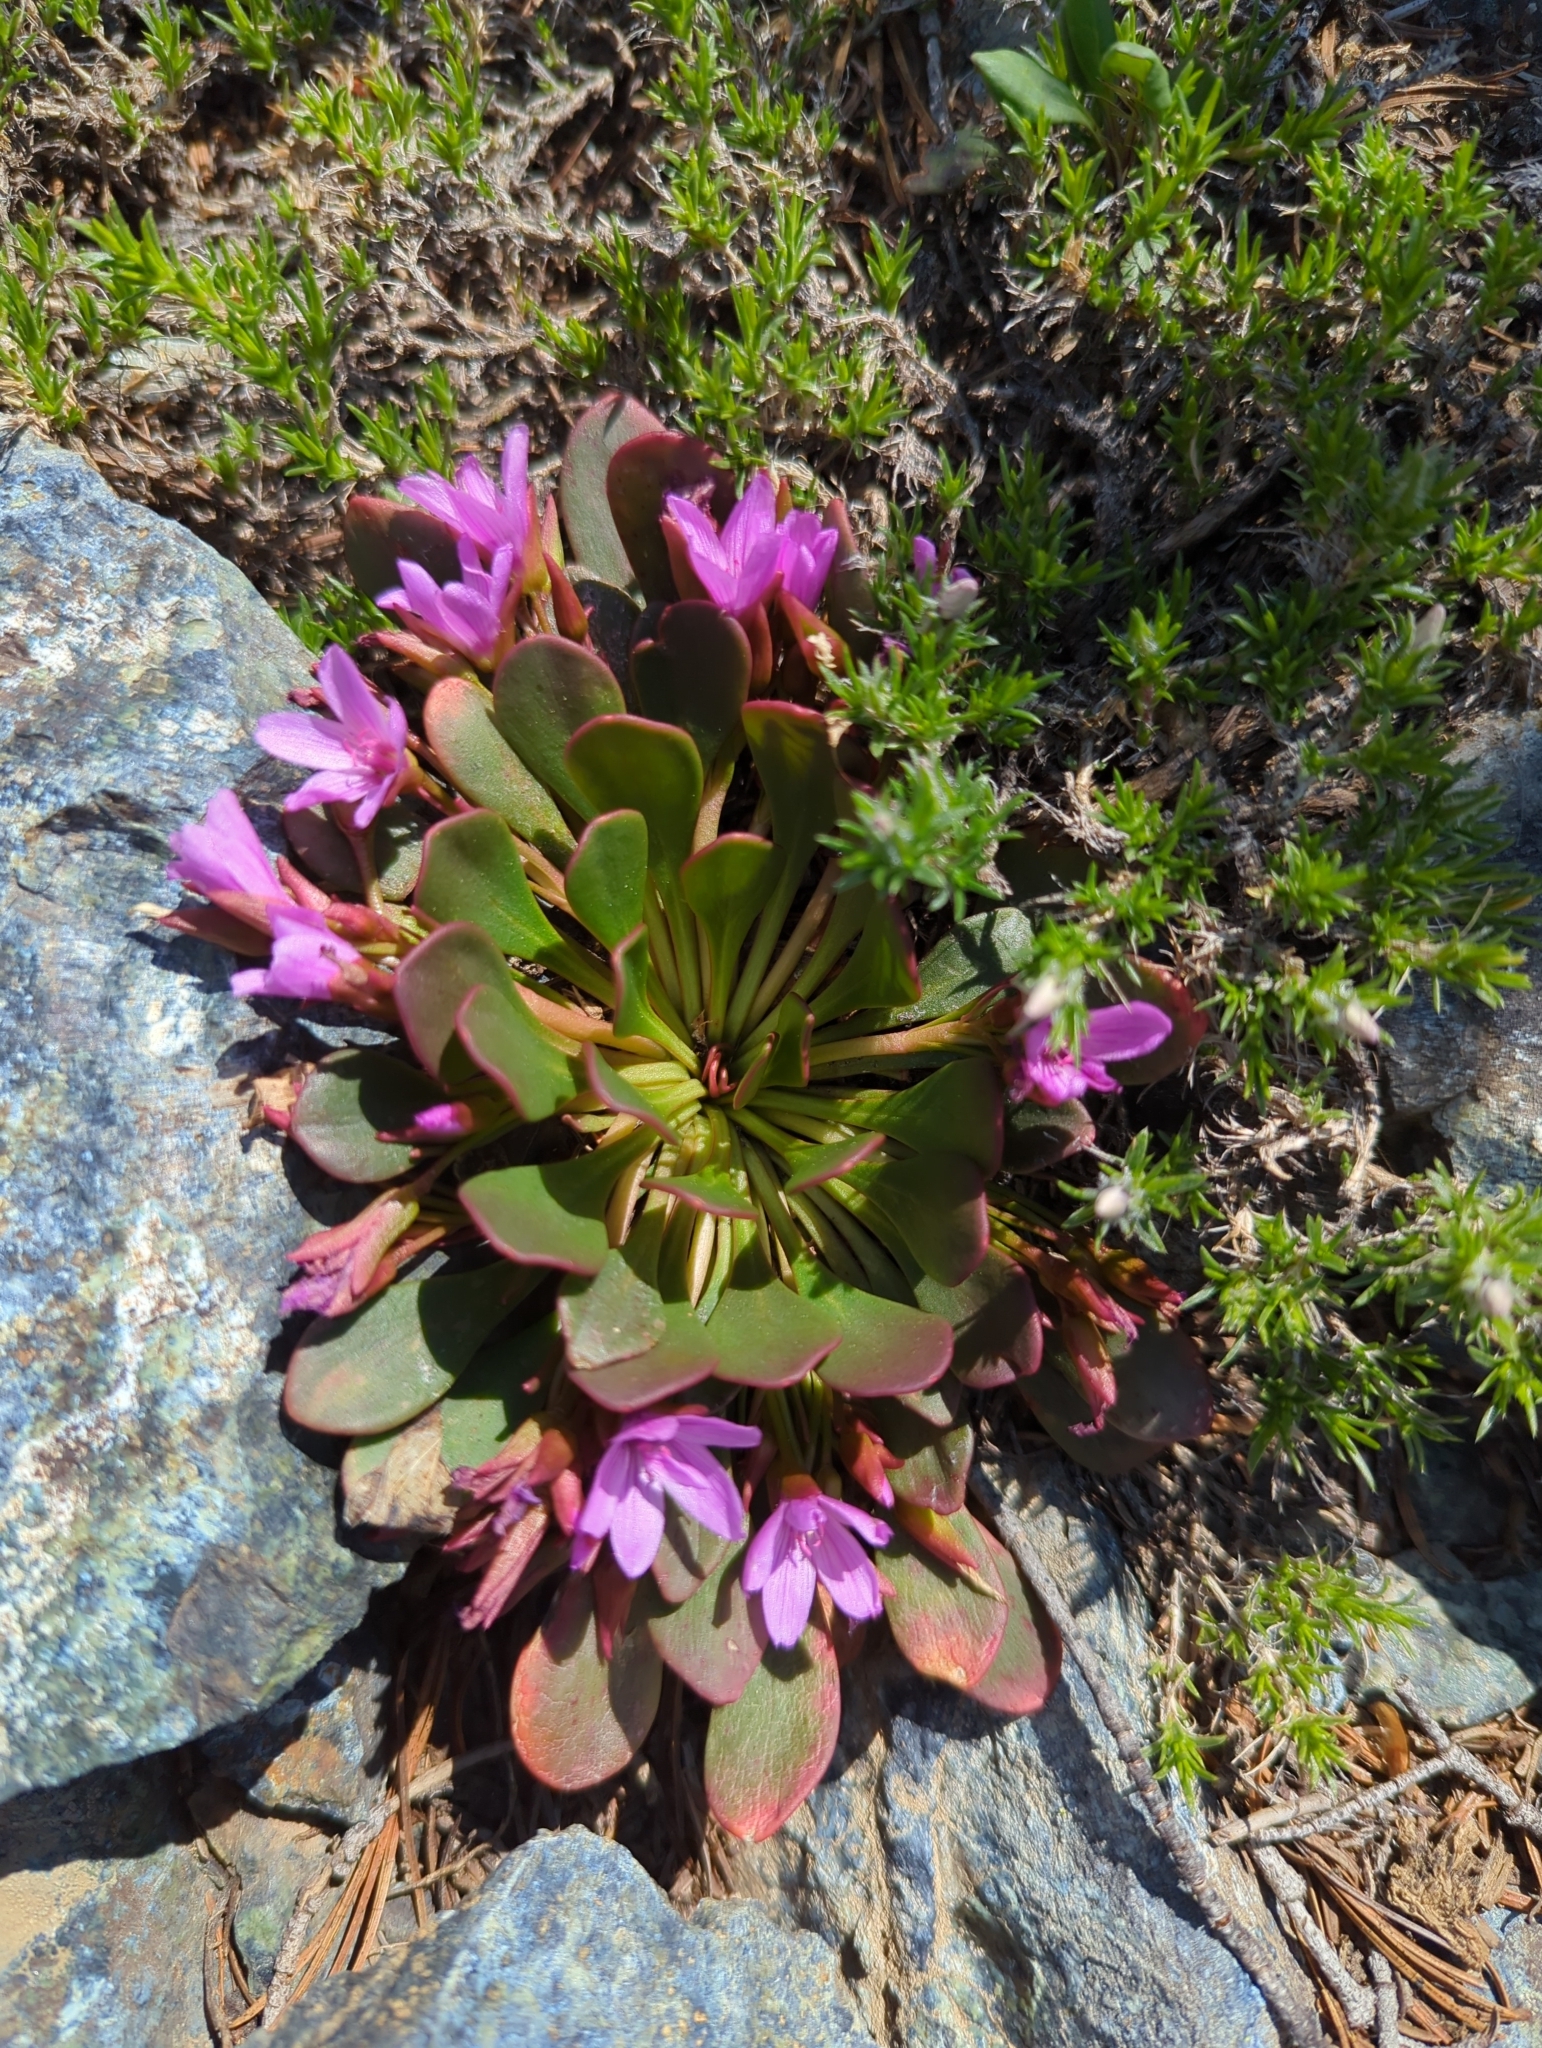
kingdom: Plantae
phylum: Tracheophyta
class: Magnoliopsida
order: Caryophyllales
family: Montiaceae
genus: Claytonia
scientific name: Claytonia megarhiza
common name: Alpine spring beauty
